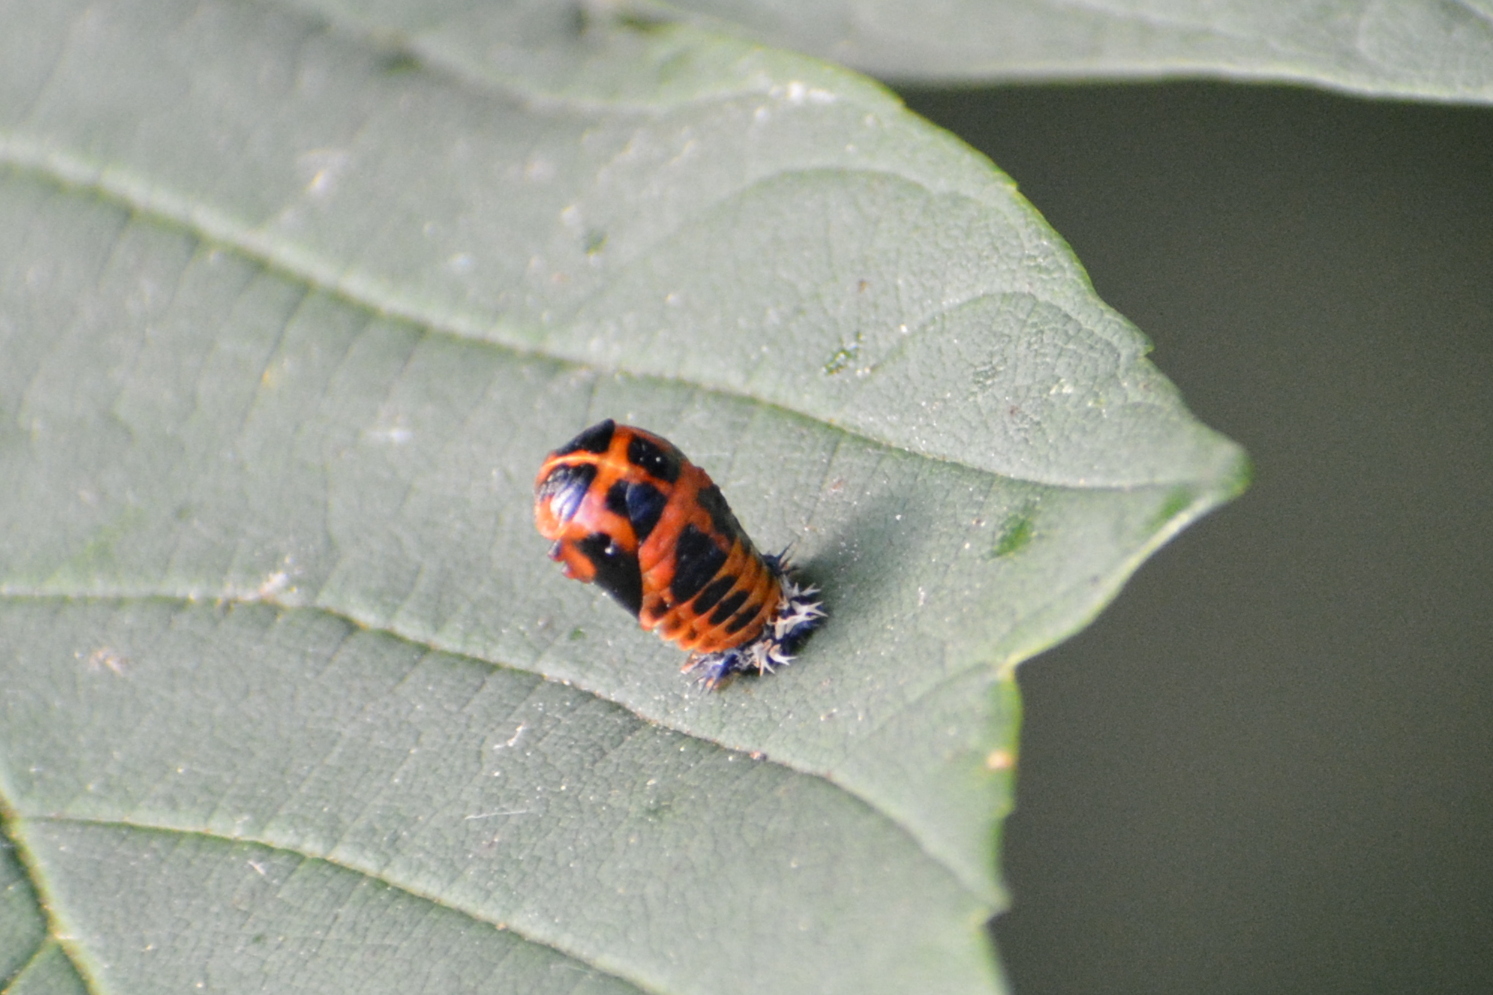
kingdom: Animalia
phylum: Arthropoda
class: Insecta
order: Coleoptera
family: Coccinellidae
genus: Harmonia
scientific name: Harmonia axyridis
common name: Harlequin ladybird
